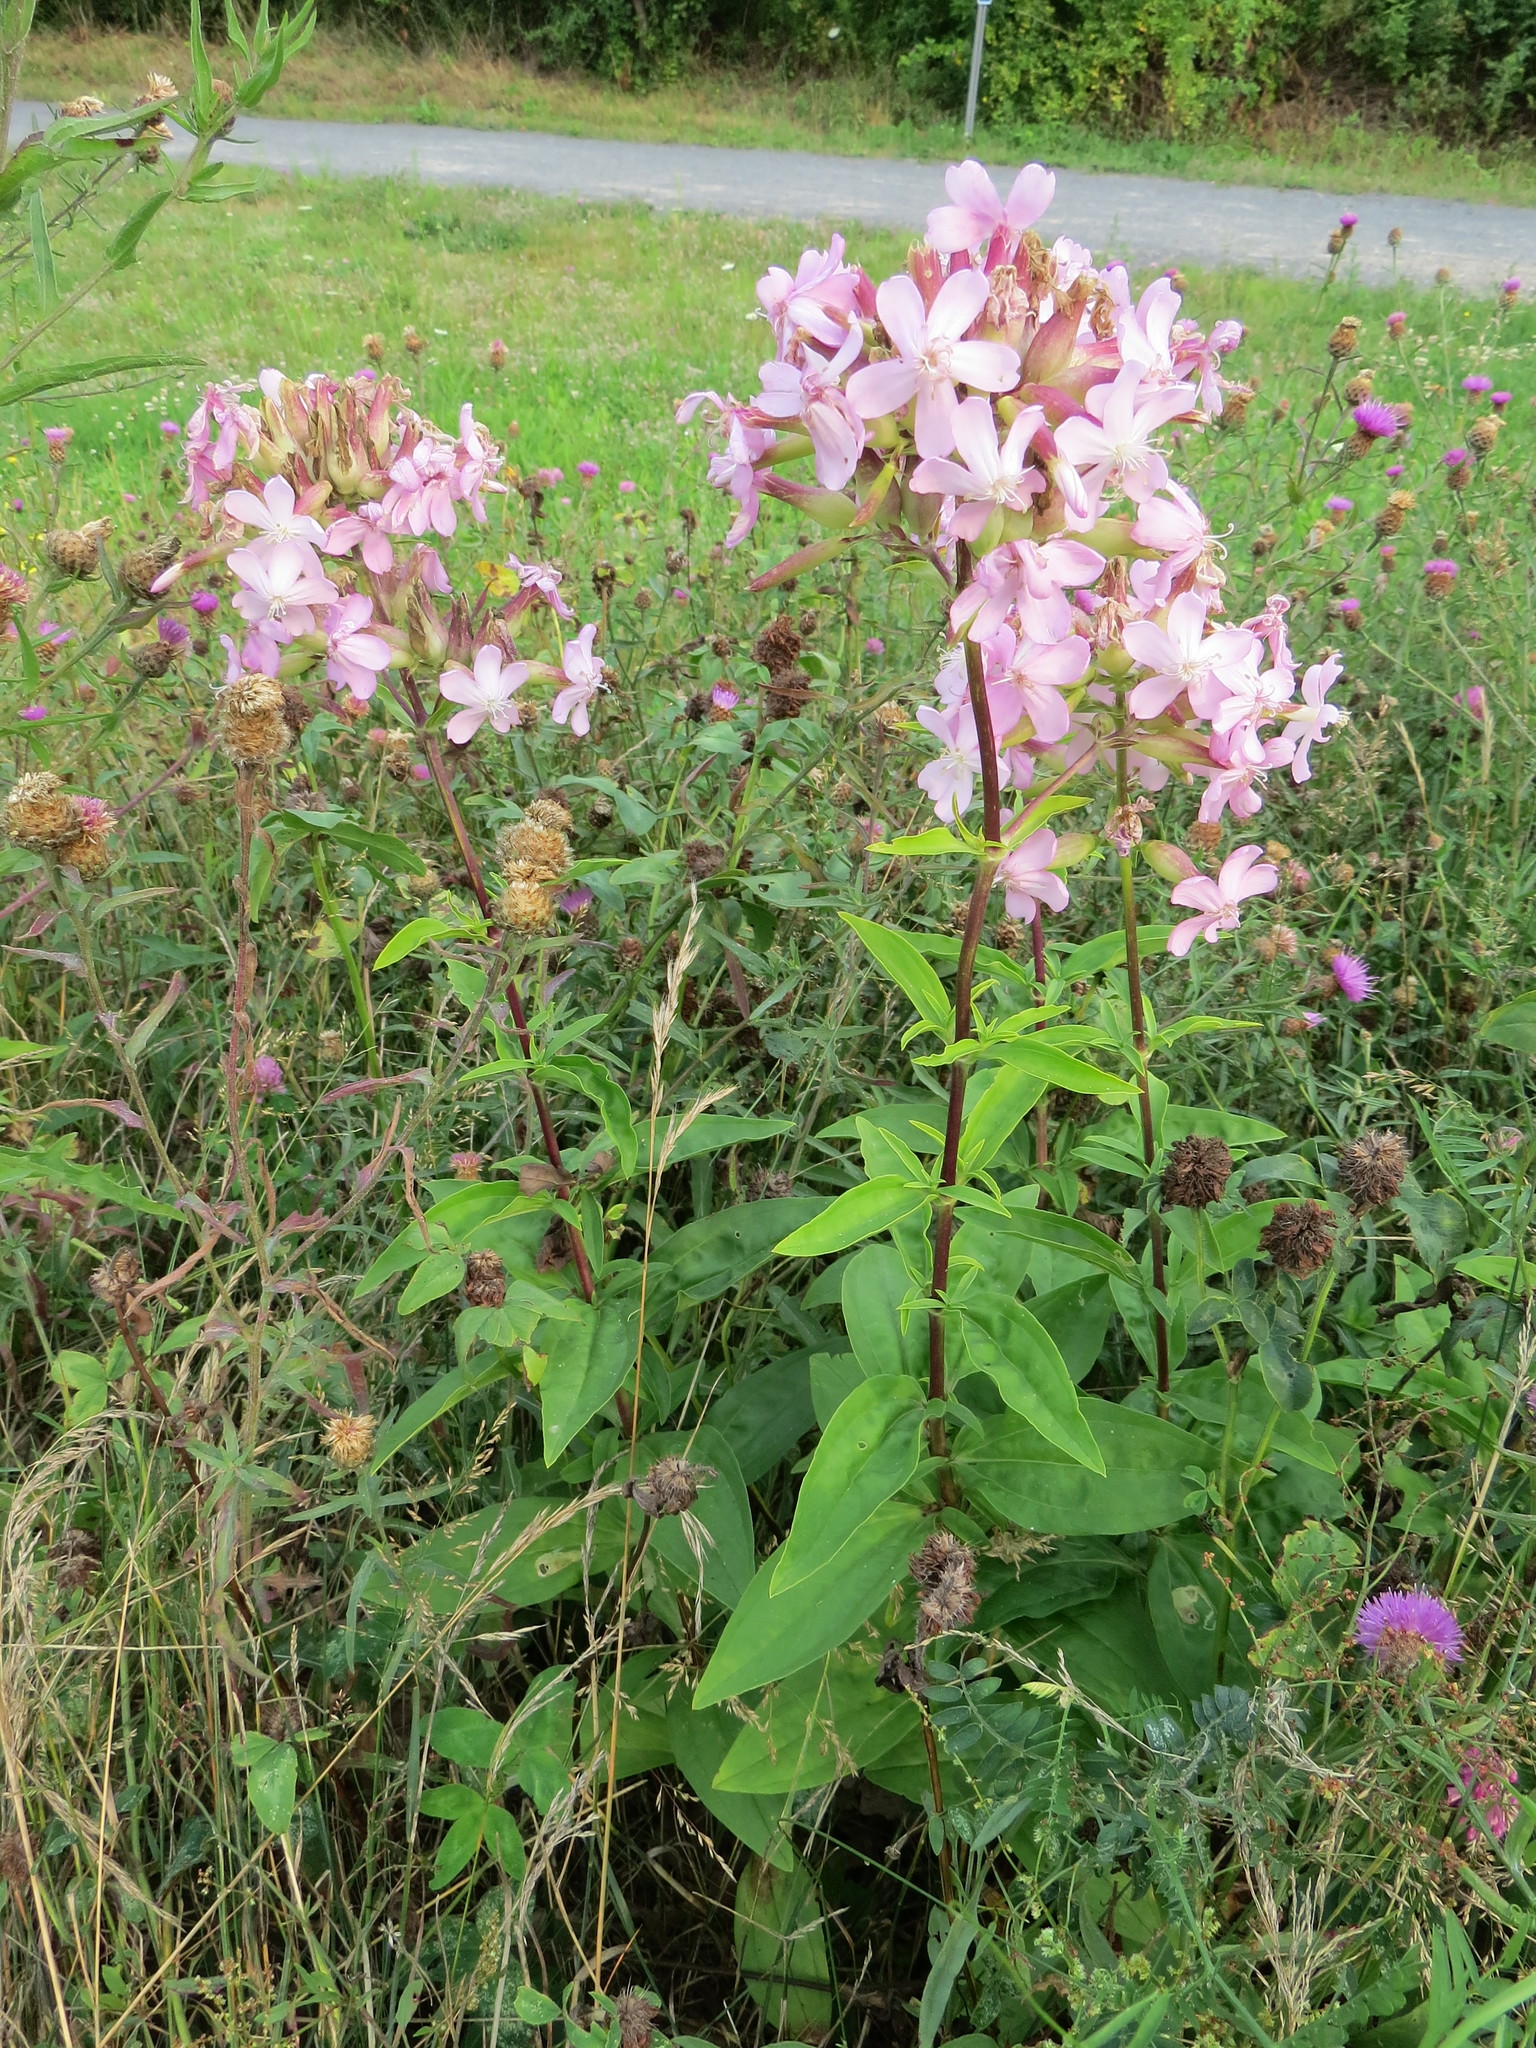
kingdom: Plantae
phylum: Tracheophyta
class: Magnoliopsida
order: Caryophyllales
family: Caryophyllaceae
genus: Saponaria
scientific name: Saponaria officinalis
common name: Soapwort
